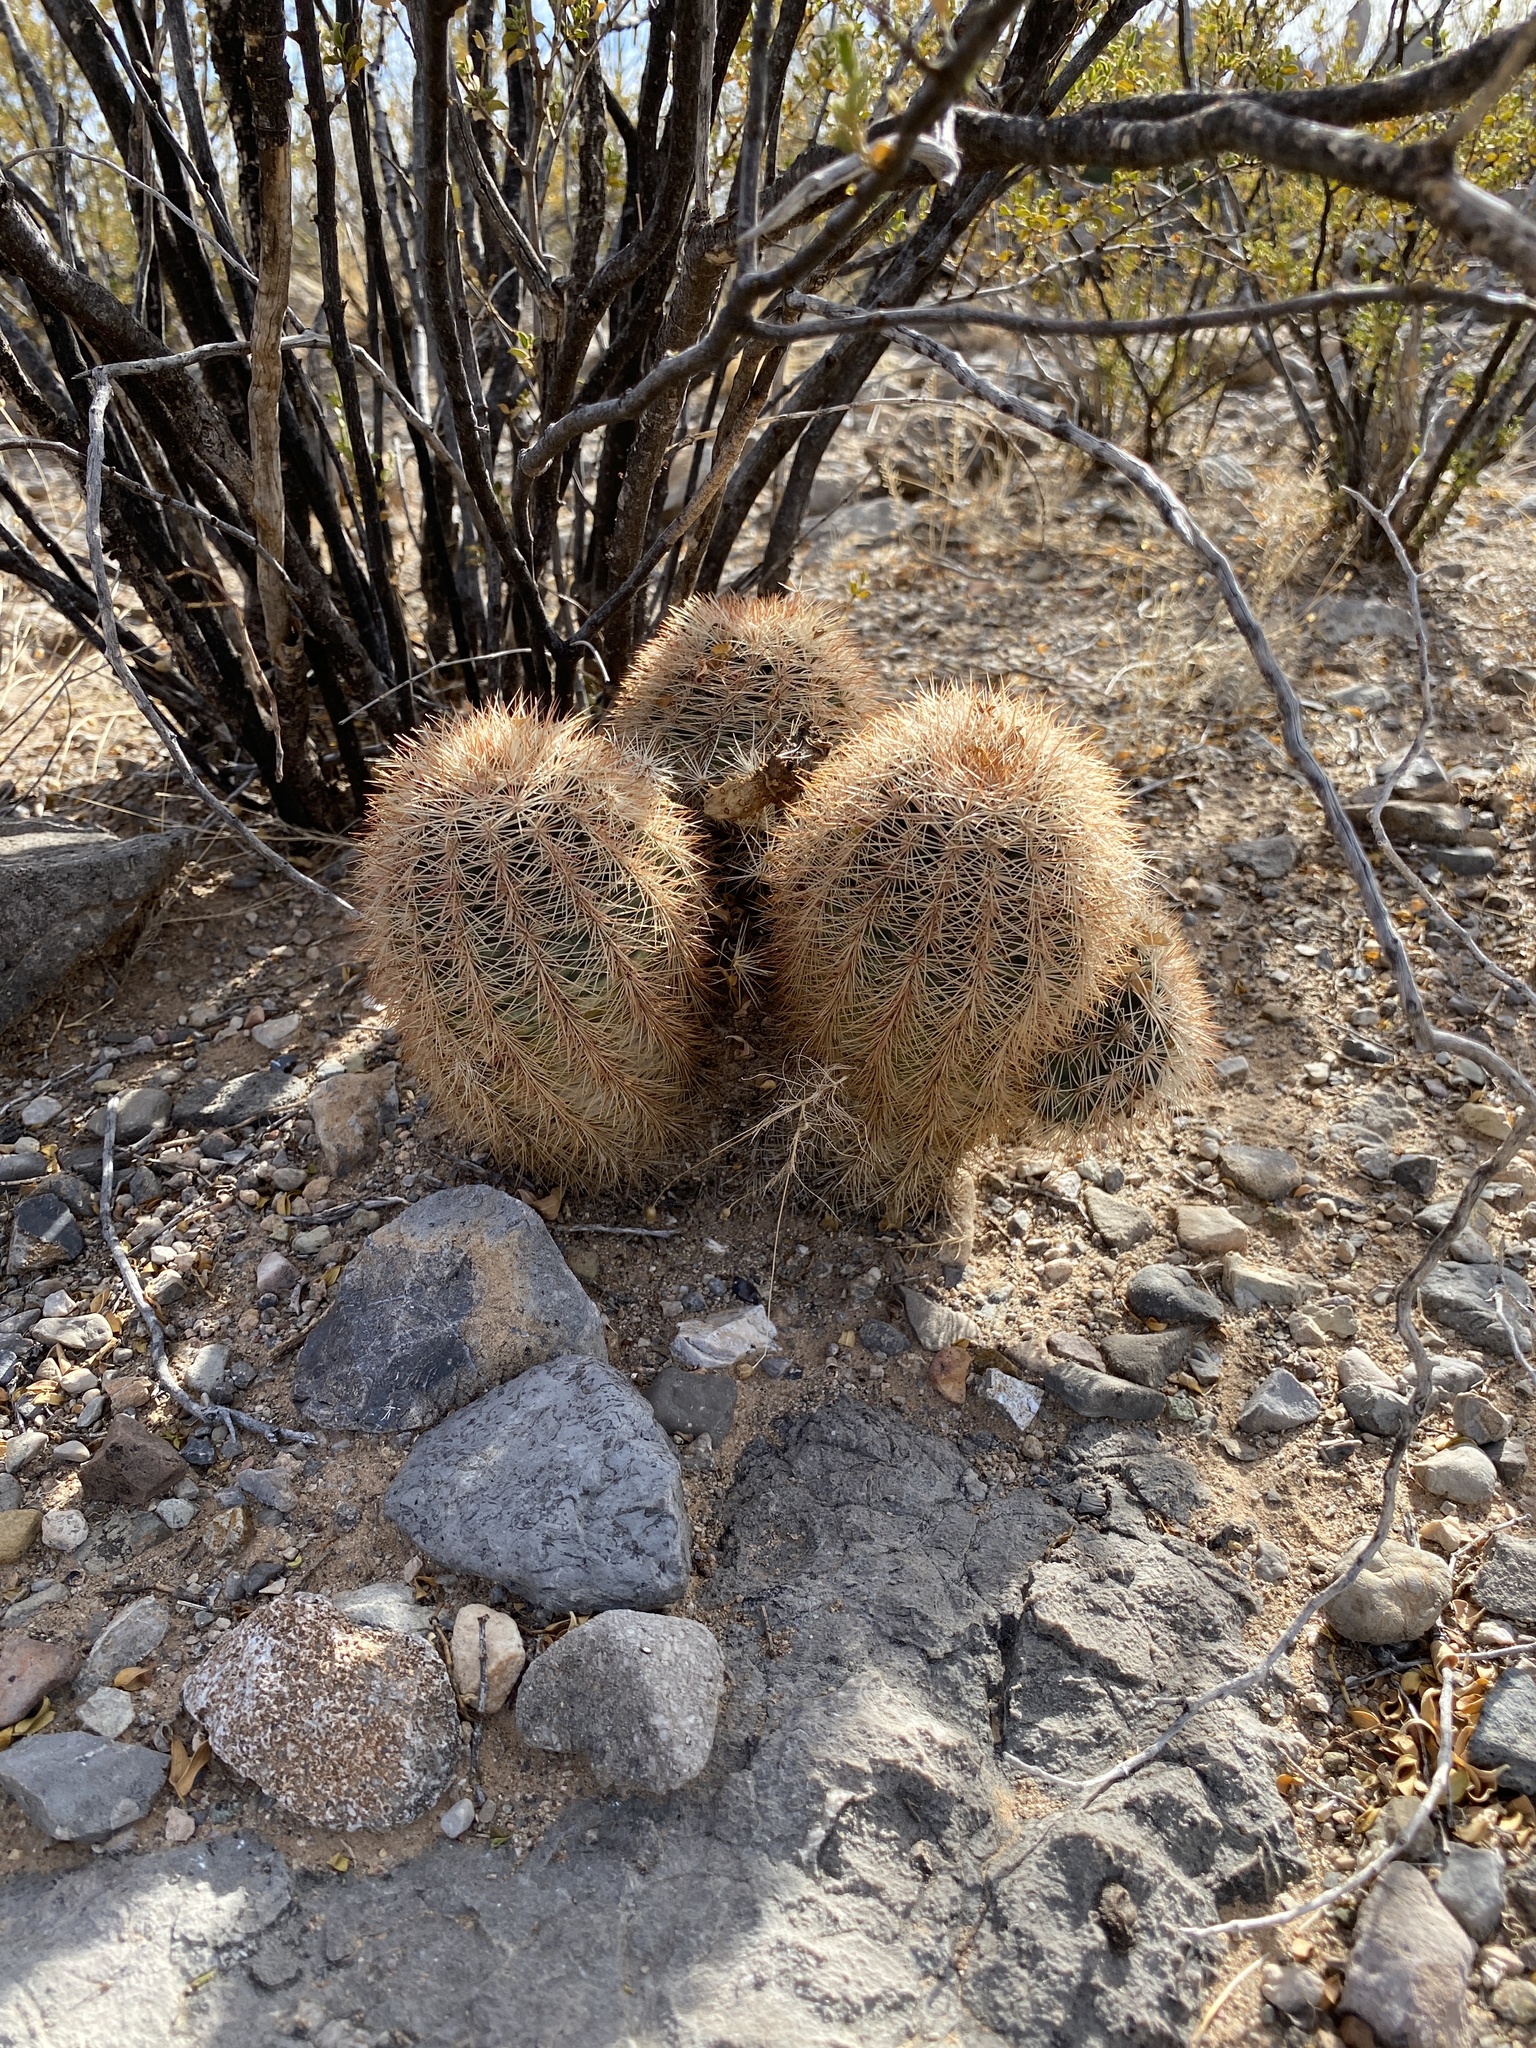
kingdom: Plantae
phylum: Tracheophyta
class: Magnoliopsida
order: Caryophyllales
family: Cactaceae
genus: Echinocereus
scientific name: Echinocereus dasyacanthus
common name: Spiny hedgehog cactus
